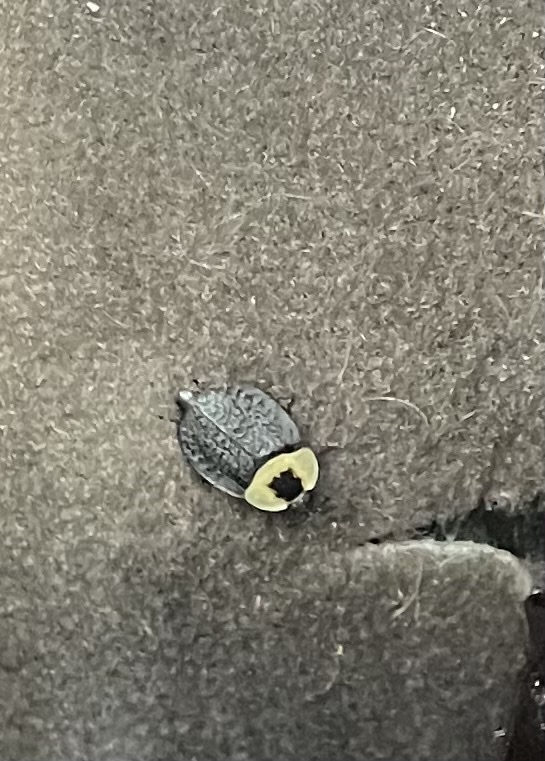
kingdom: Animalia
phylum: Arthropoda
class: Insecta
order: Coleoptera
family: Staphylinidae
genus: Necrophila
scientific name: Necrophila americana
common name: American carrion beetle
